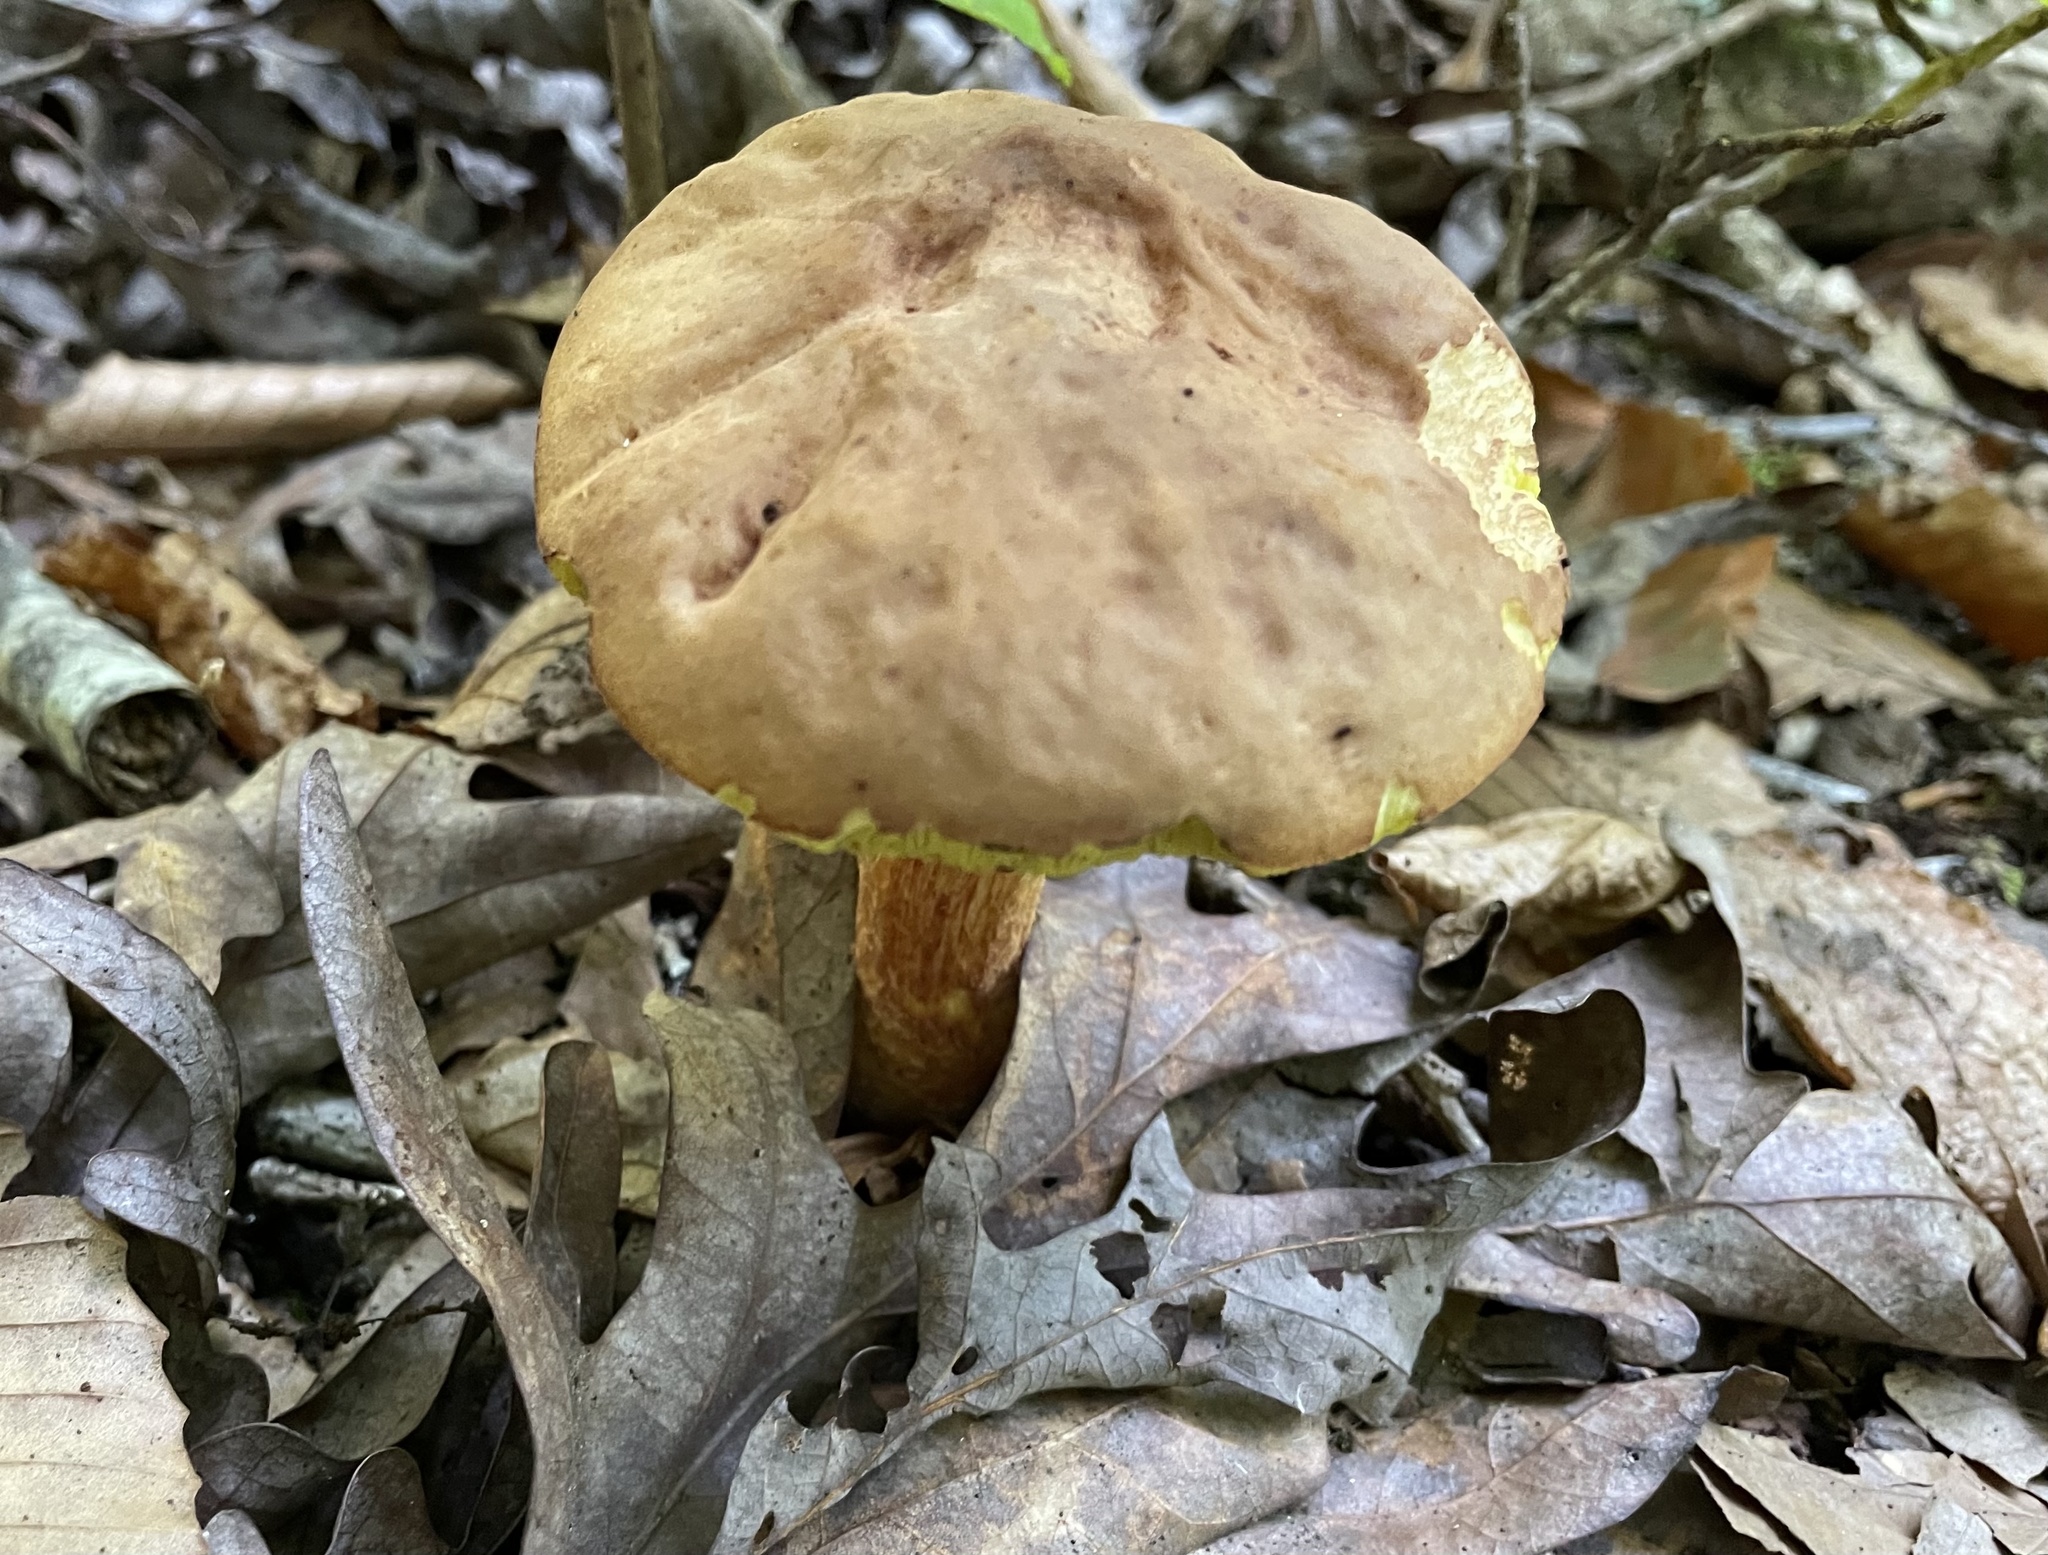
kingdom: Fungi
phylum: Basidiomycota
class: Agaricomycetes
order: Boletales
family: Boletaceae
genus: Hemileccinum
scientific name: Hemileccinum rubropunctum
